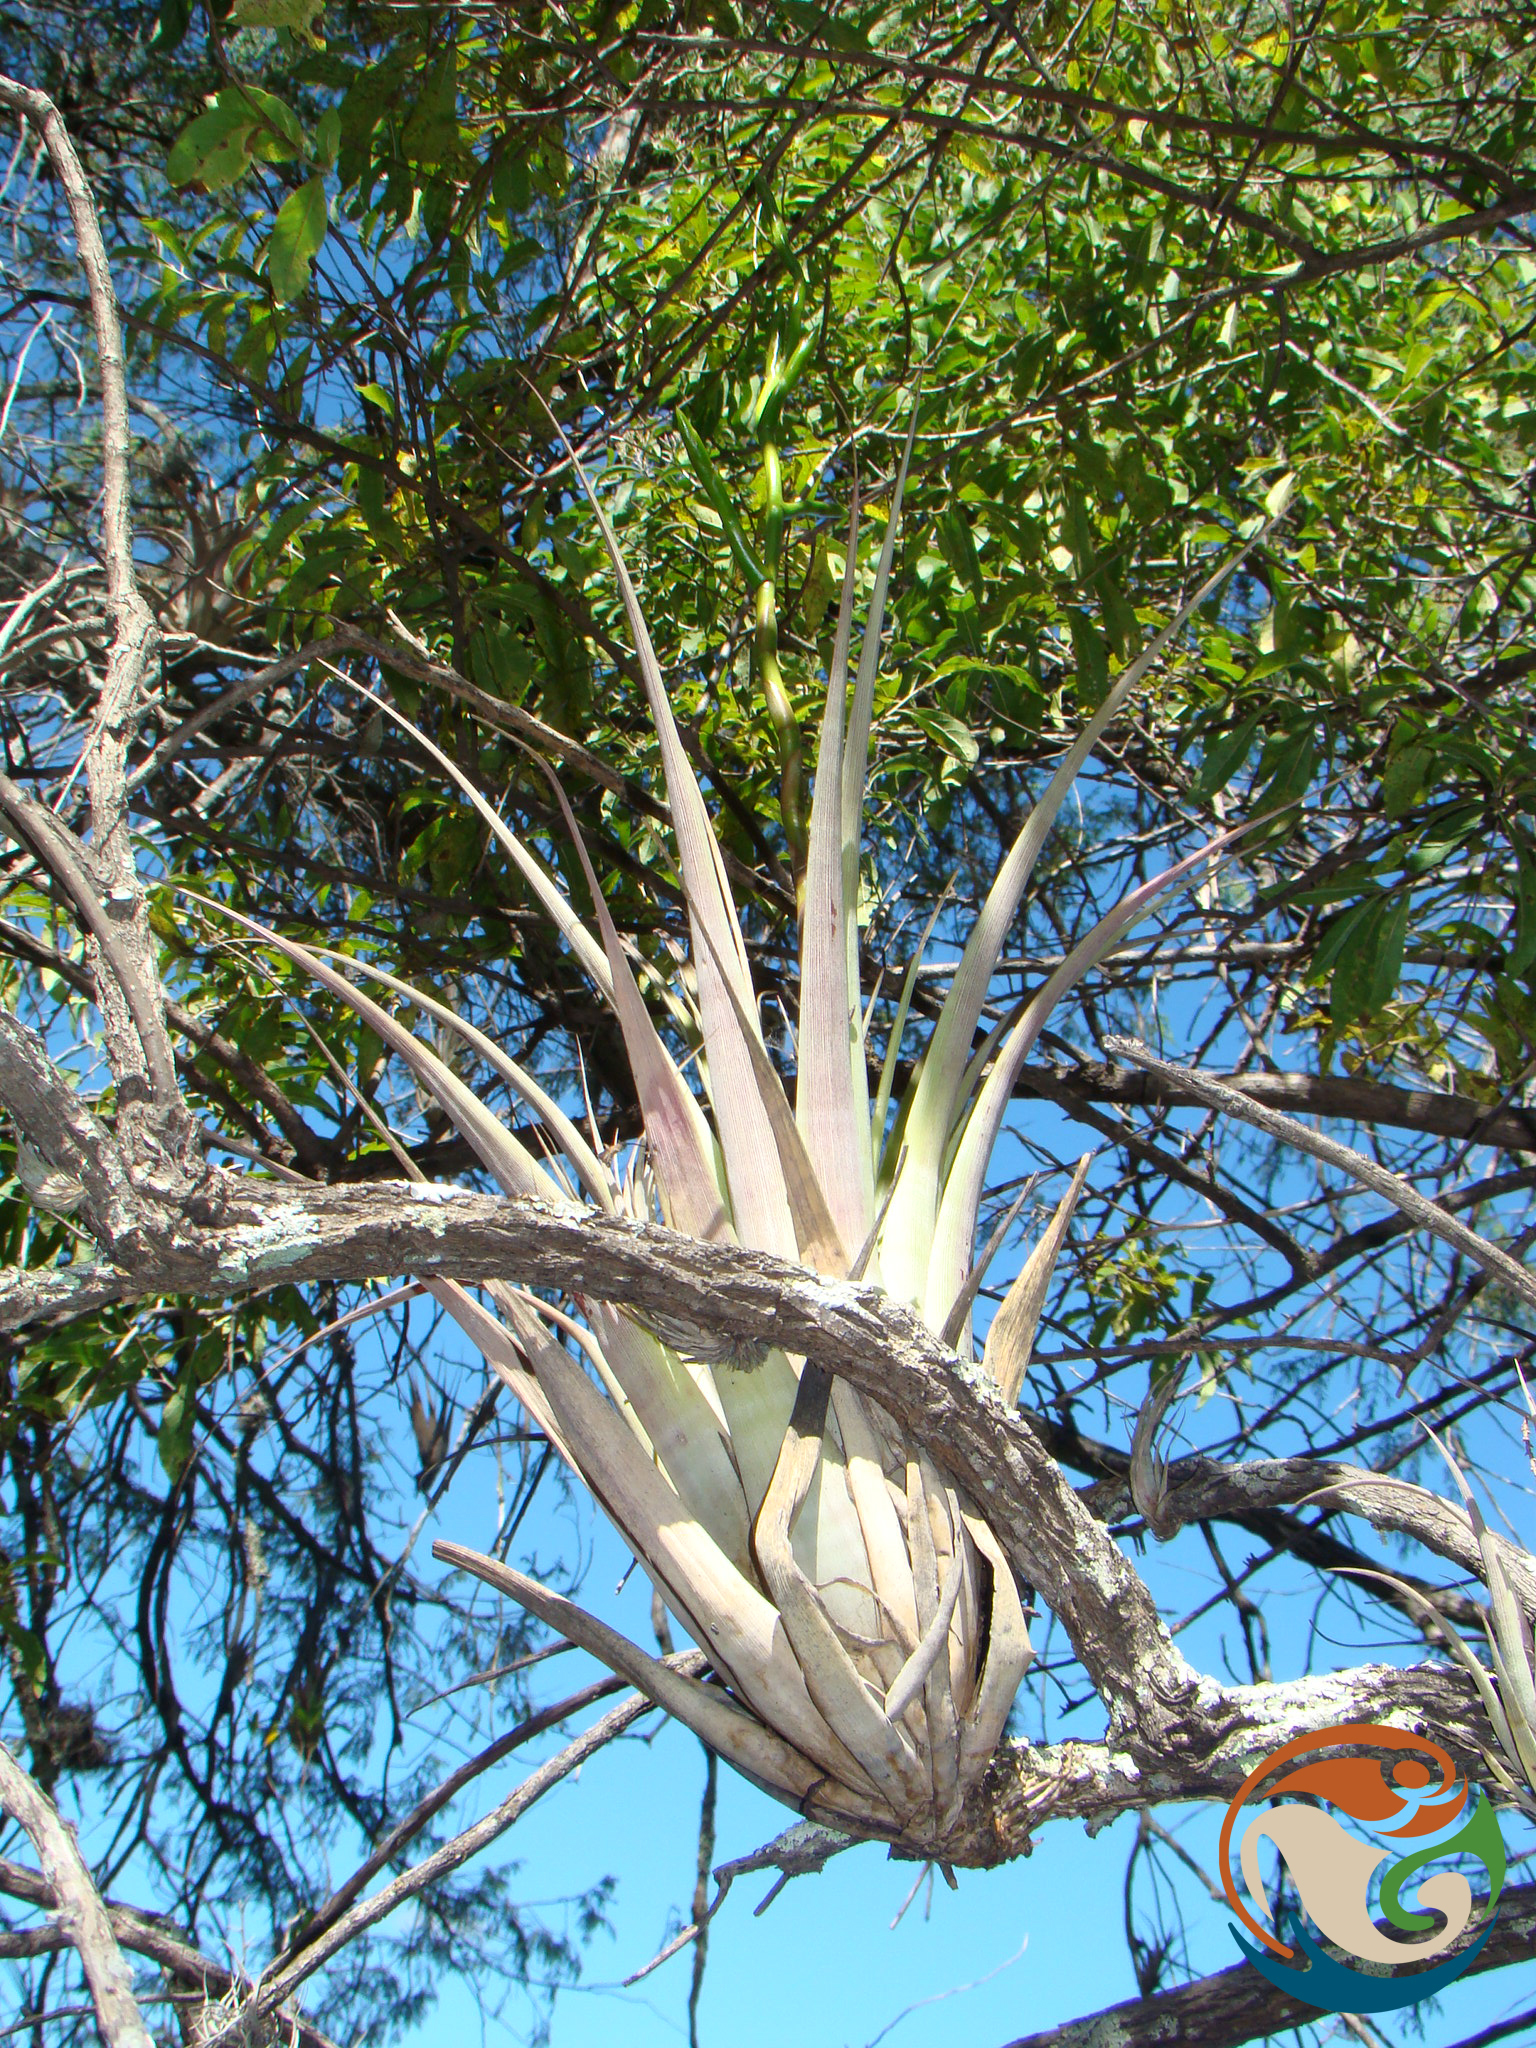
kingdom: Plantae
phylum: Tracheophyta
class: Liliopsida
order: Poales
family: Bromeliaceae
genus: Tillandsia
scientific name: Tillandsia makoyana
